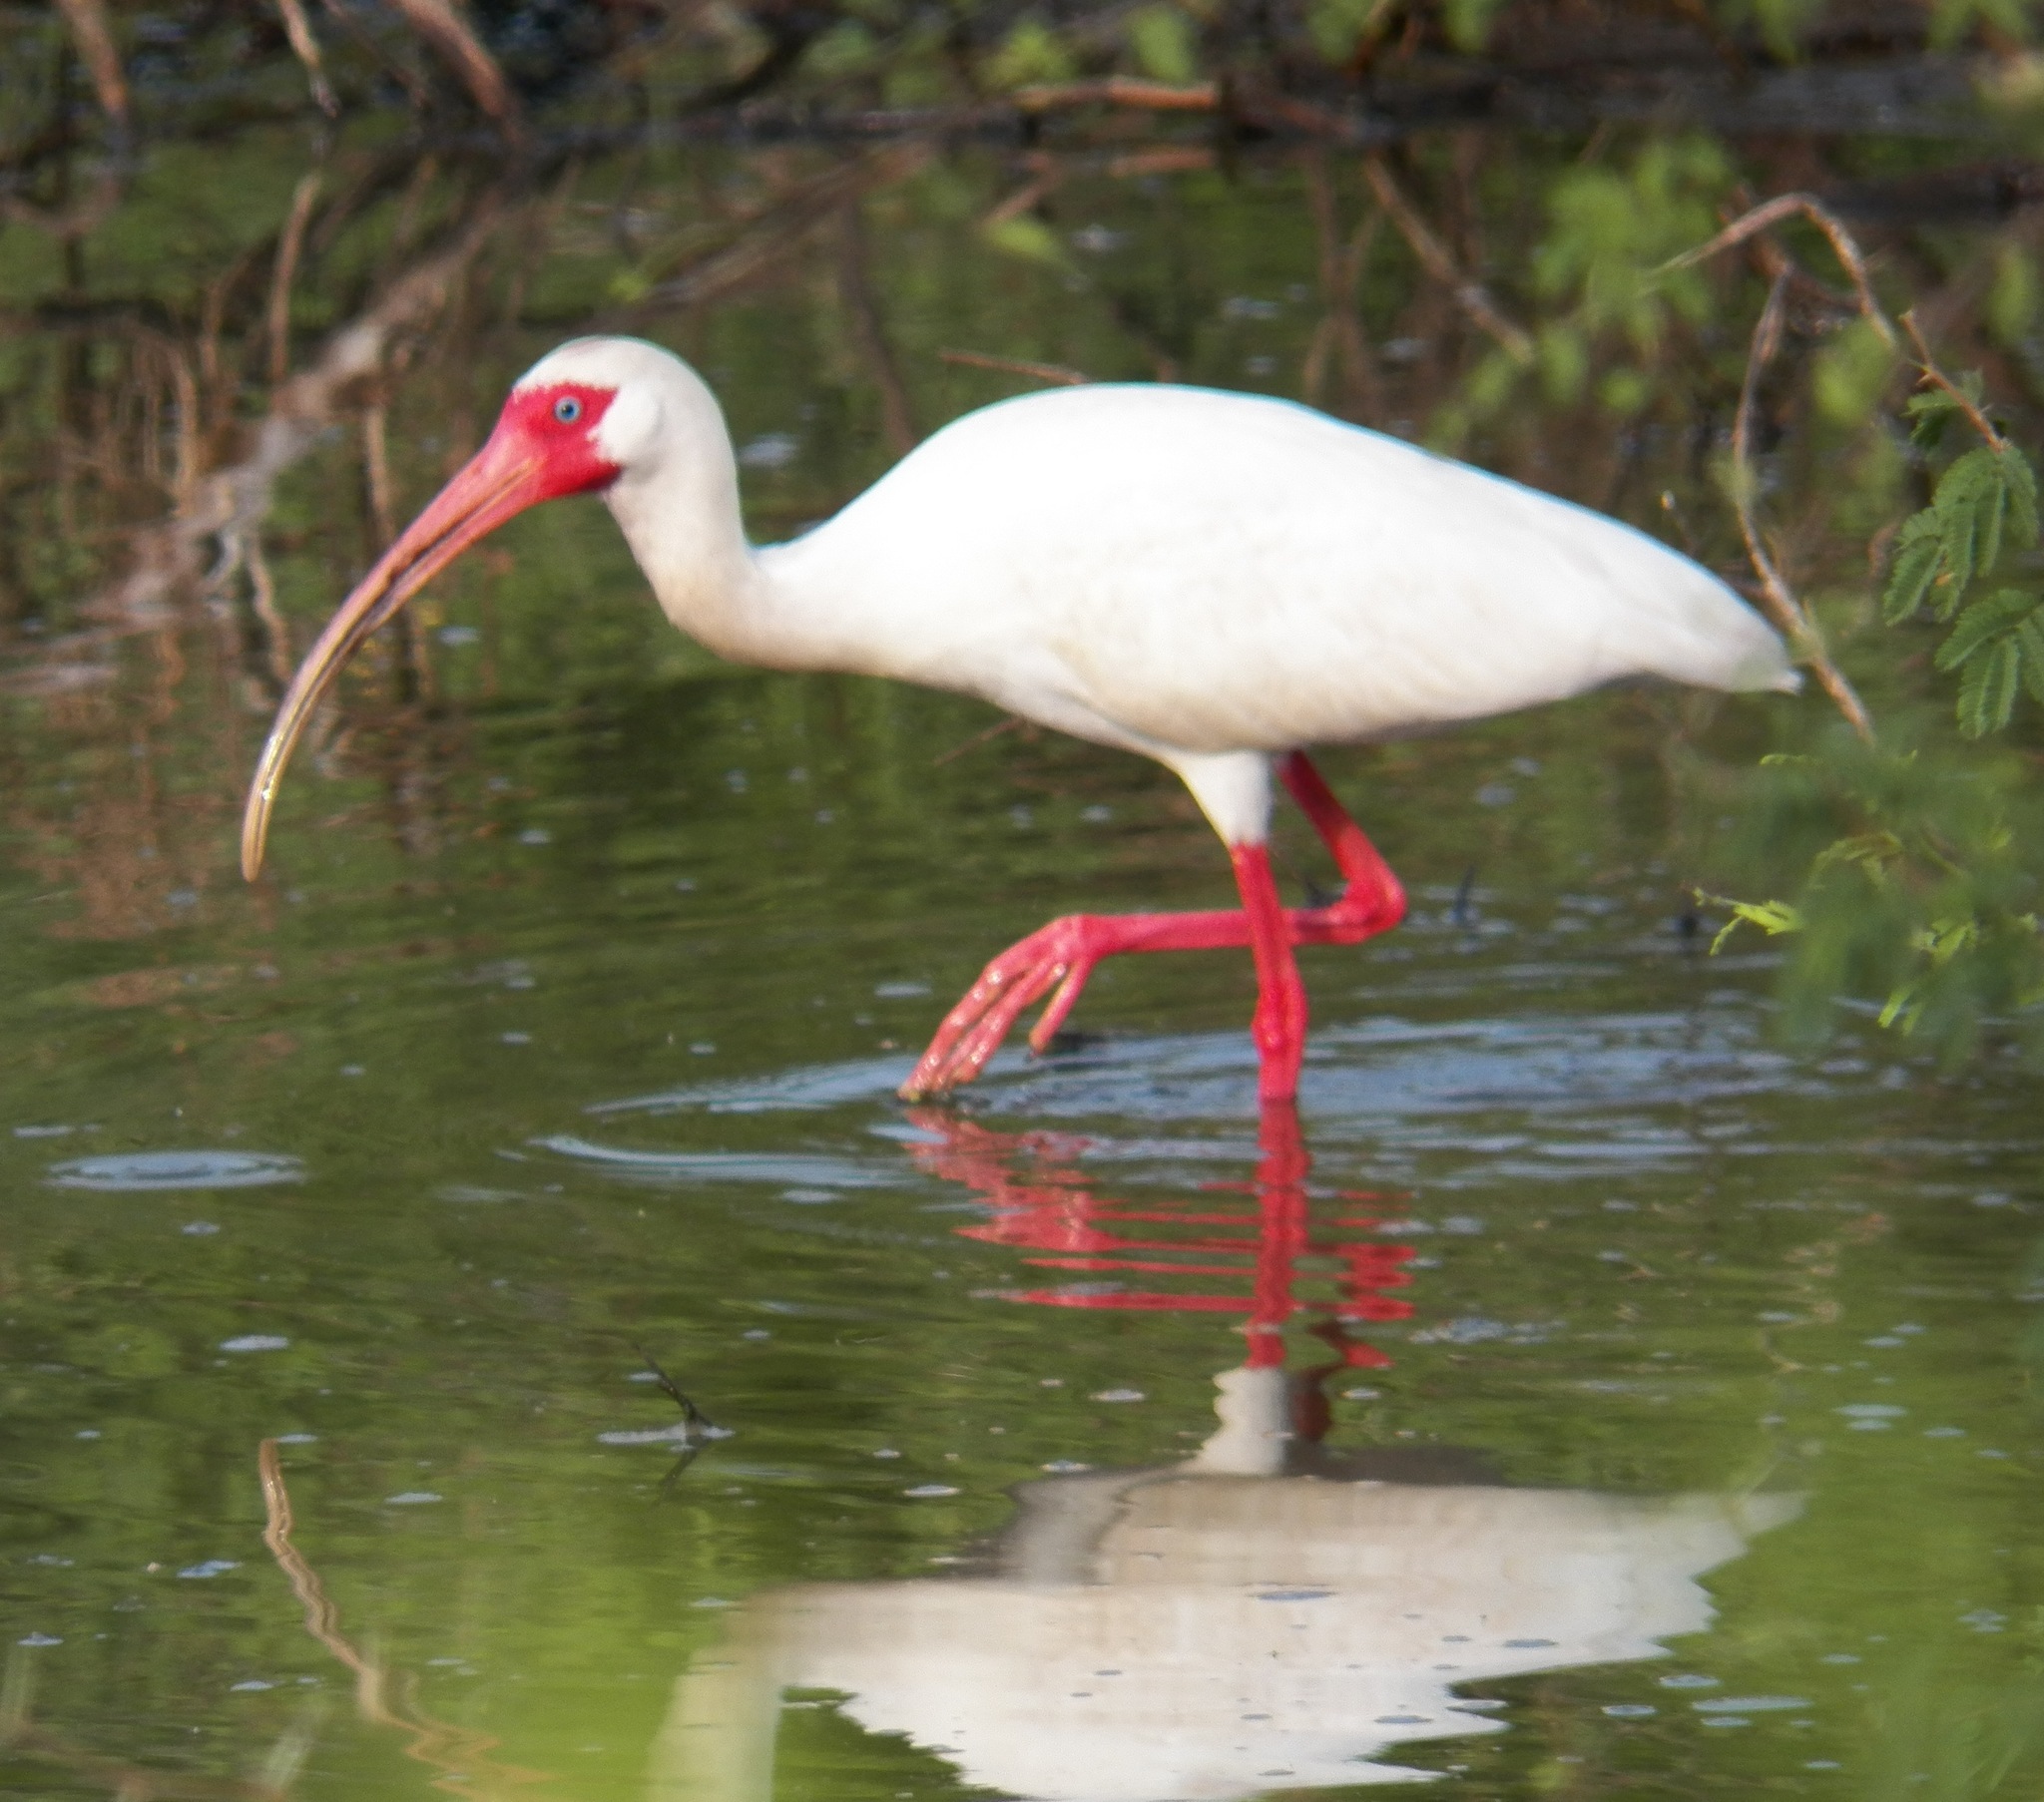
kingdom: Animalia
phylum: Chordata
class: Aves
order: Pelecaniformes
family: Threskiornithidae
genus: Eudocimus
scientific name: Eudocimus albus
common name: White ibis
